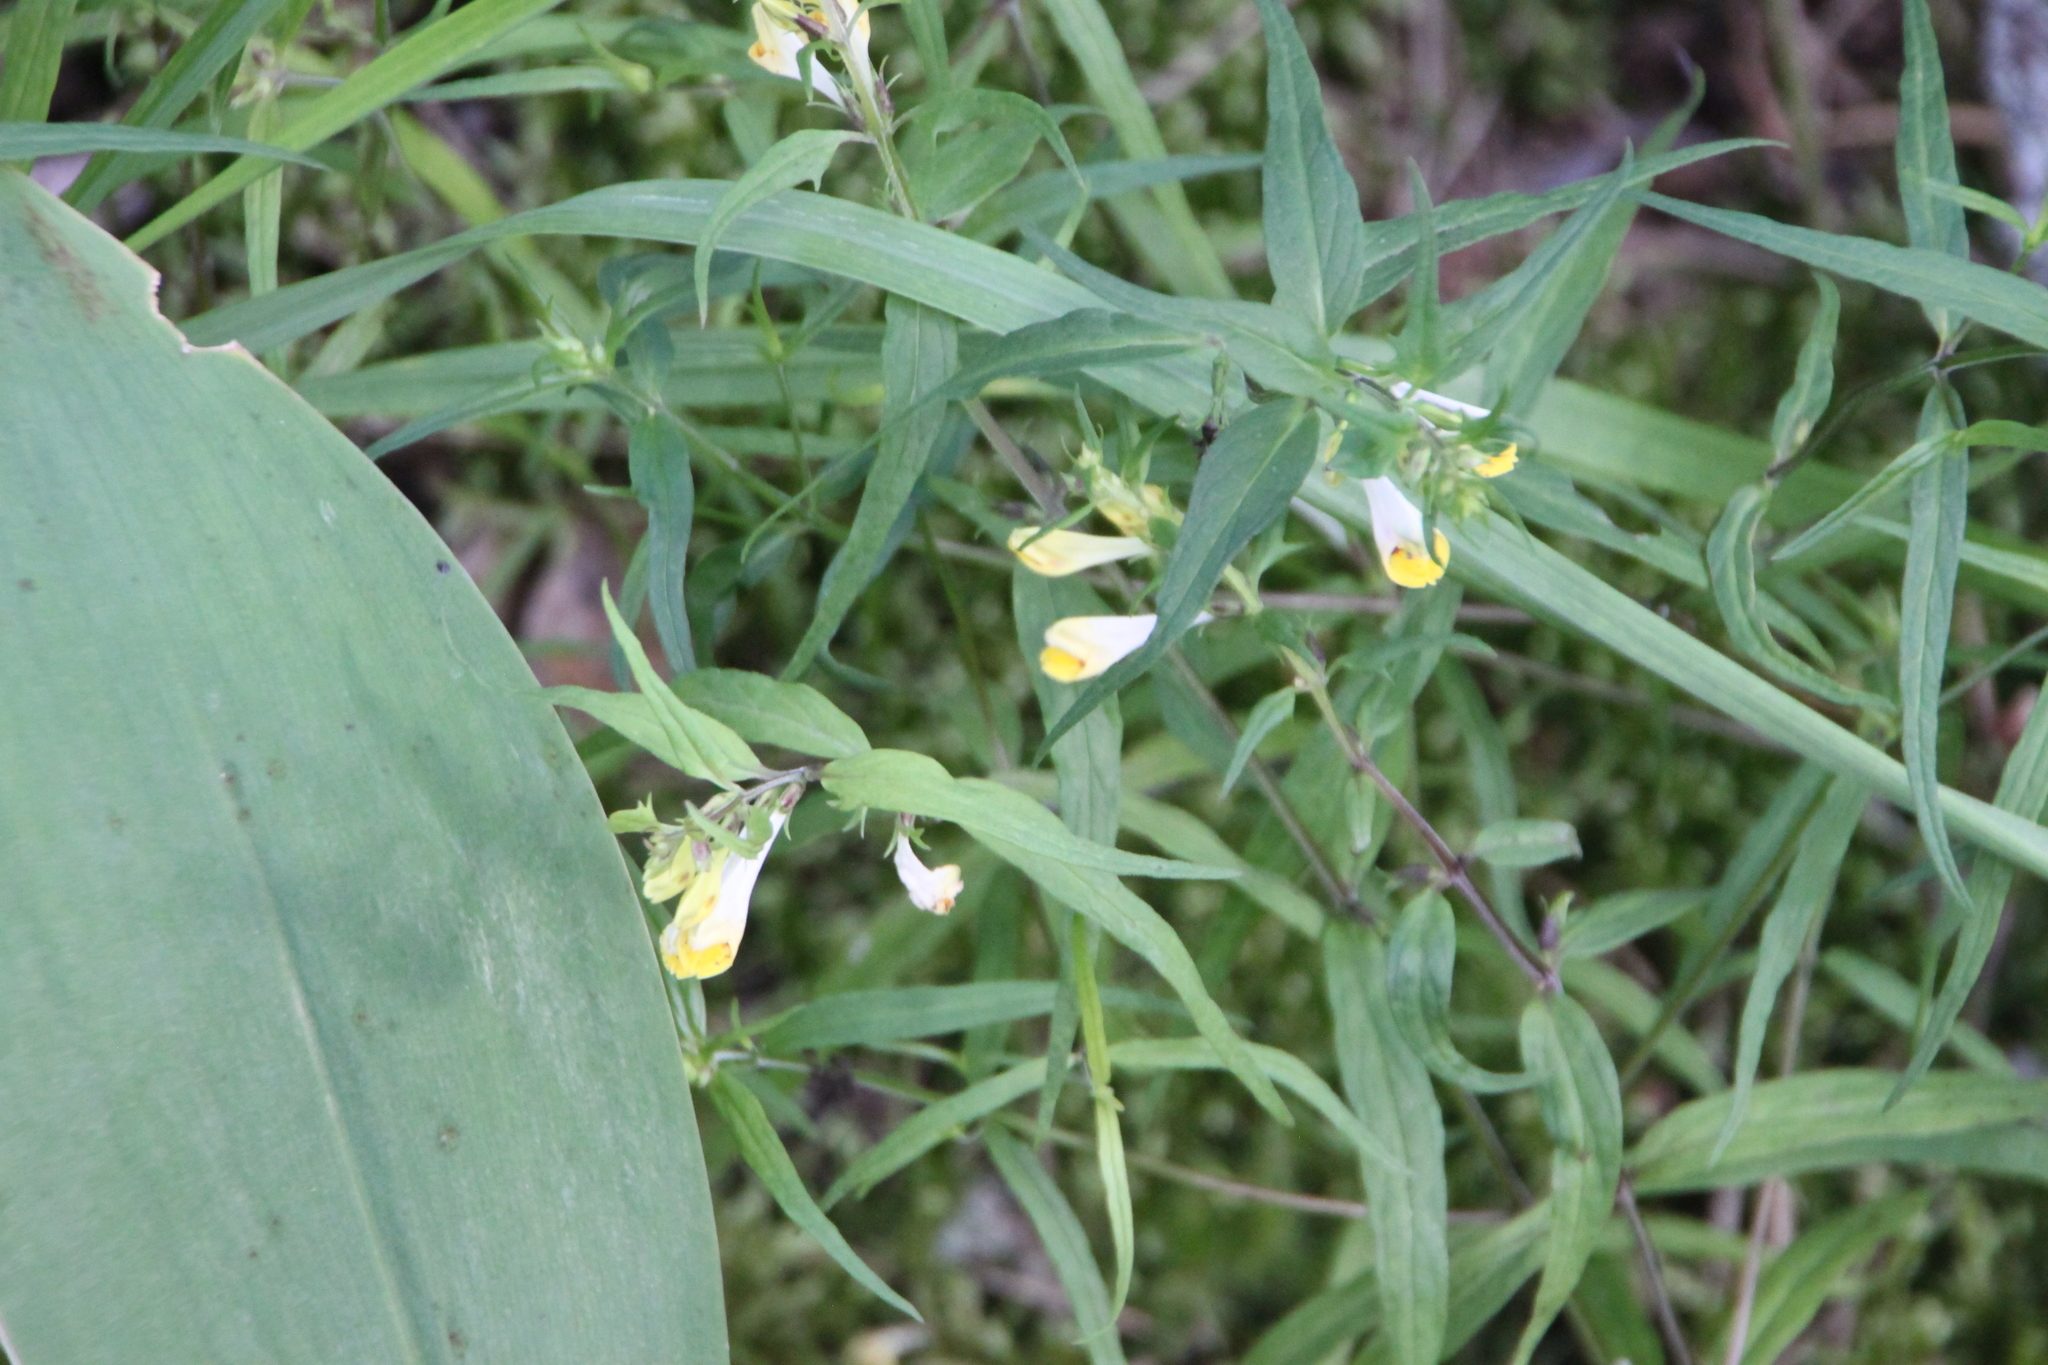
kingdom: Plantae
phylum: Tracheophyta
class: Magnoliopsida
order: Lamiales
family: Orobanchaceae
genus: Melampyrum
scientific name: Melampyrum pratense
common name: Common cow-wheat
